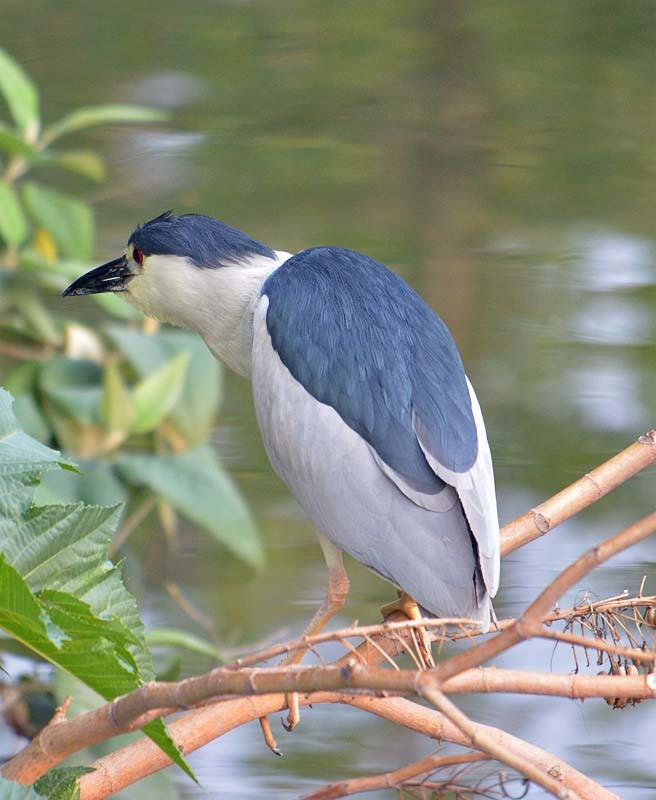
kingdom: Animalia
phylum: Chordata
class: Aves
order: Pelecaniformes
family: Ardeidae
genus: Nycticorax
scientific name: Nycticorax nycticorax
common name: Black-crowned night heron
